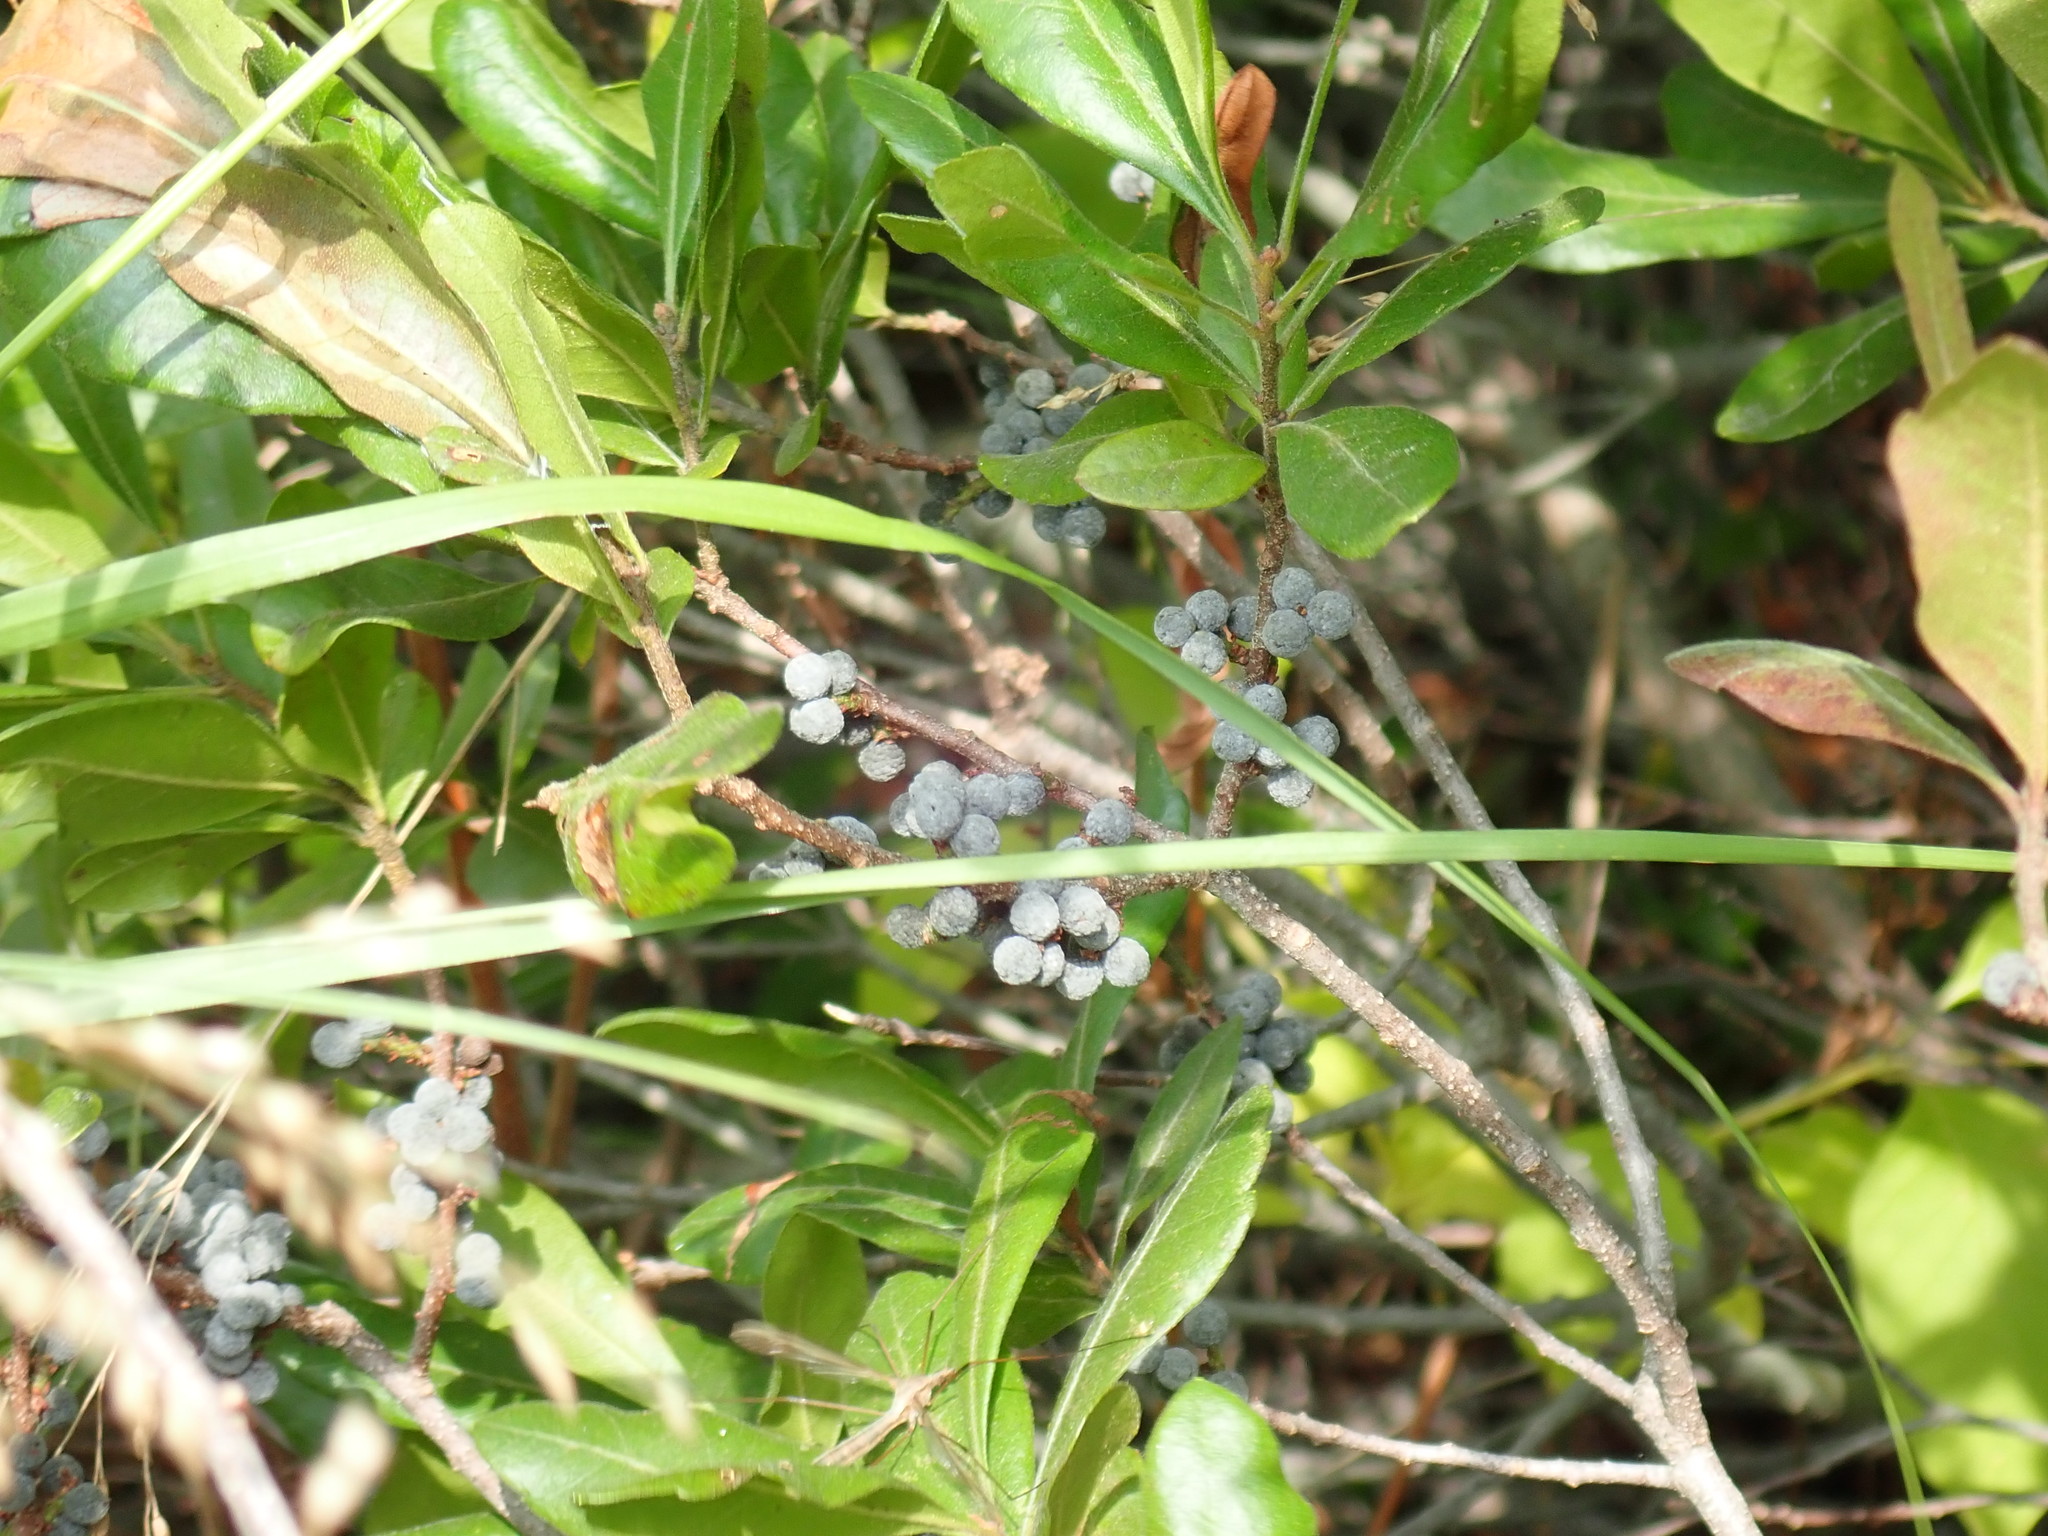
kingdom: Plantae
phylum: Tracheophyta
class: Magnoliopsida
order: Fagales
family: Myricaceae
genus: Morella
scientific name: Morella pensylvanica
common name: Northern bayberry
